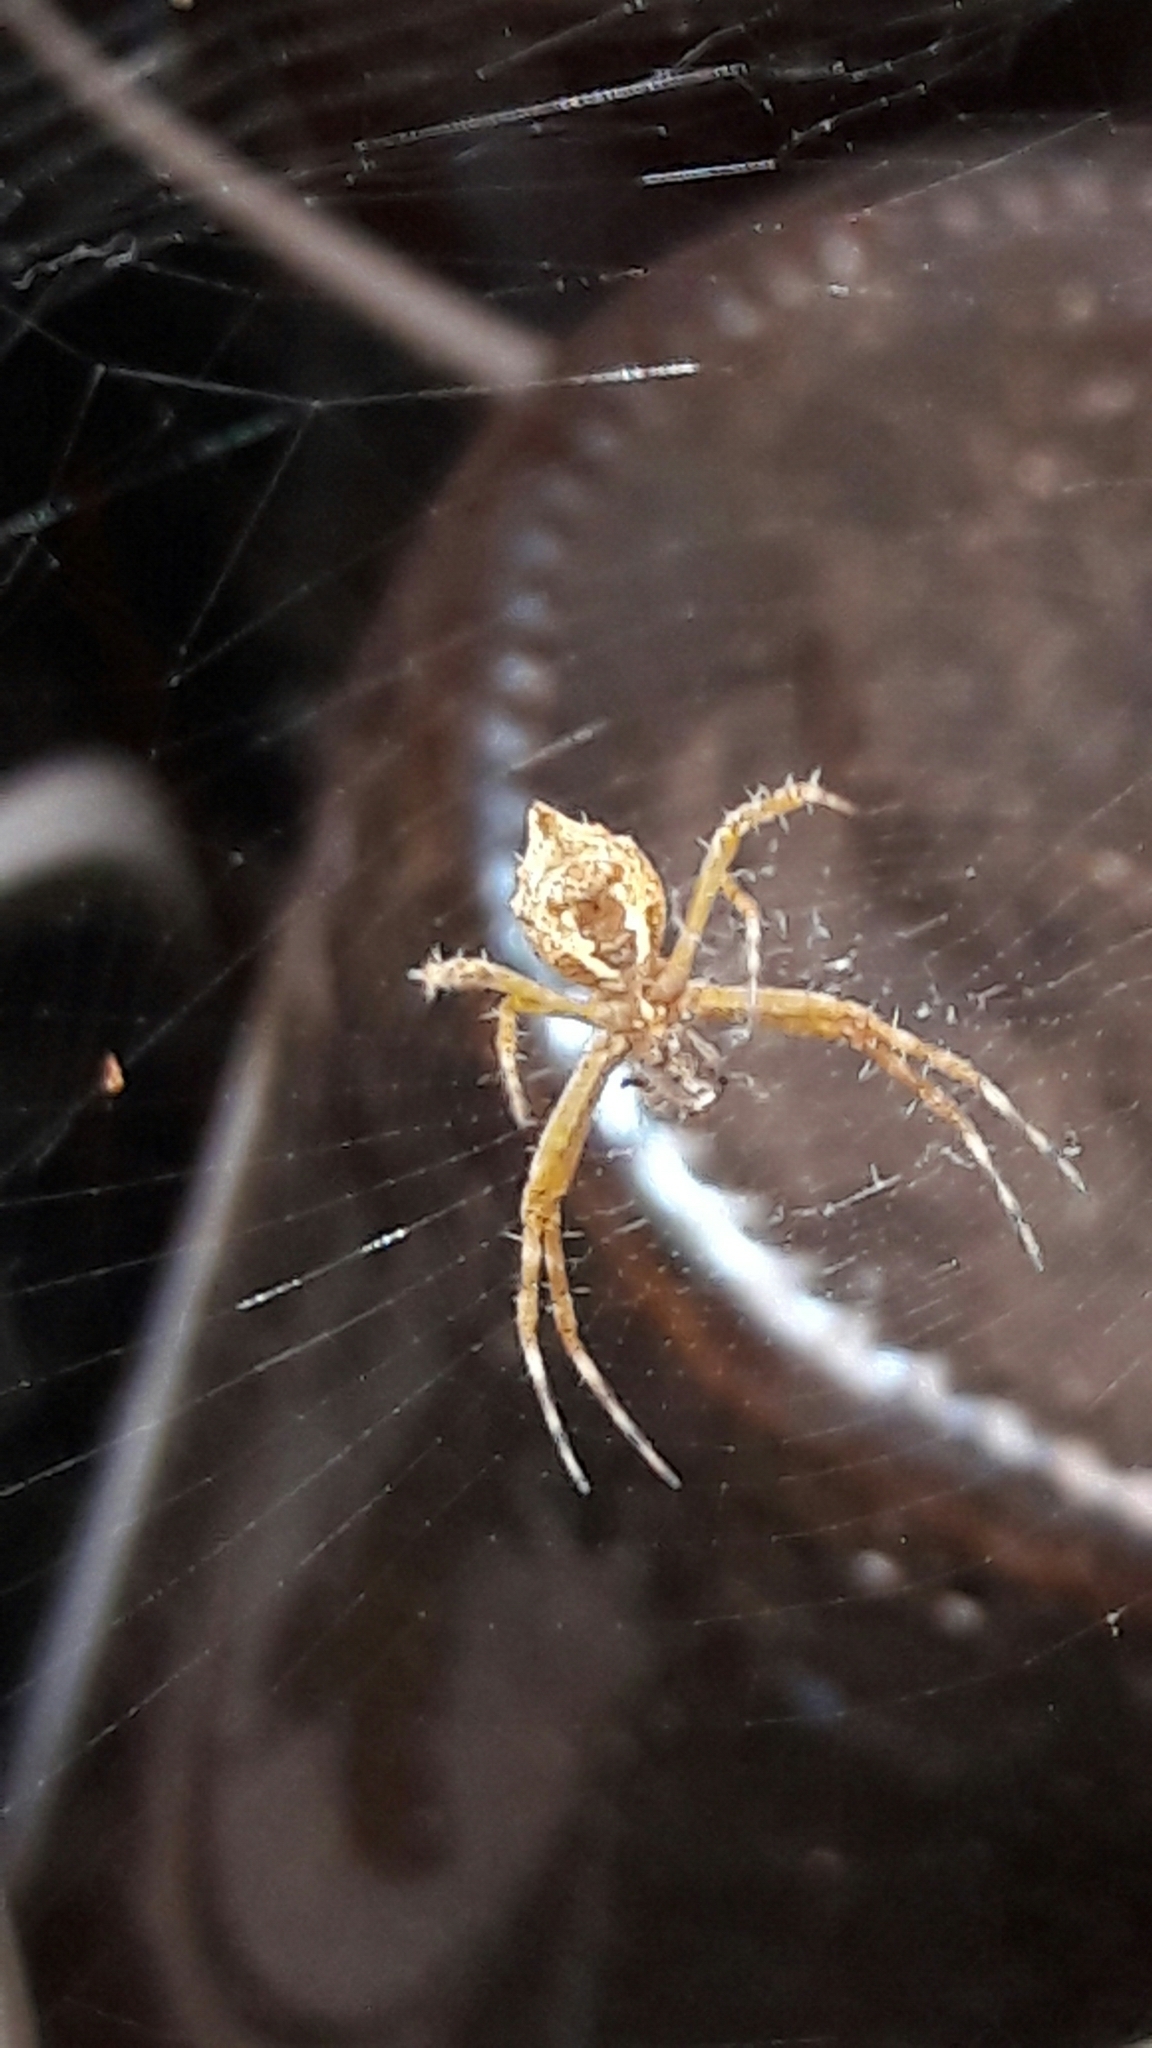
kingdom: Animalia
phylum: Arthropoda
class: Arachnida
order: Araneae
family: Araneidae
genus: Argiope
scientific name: Argiope argentata
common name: Orb weavers
